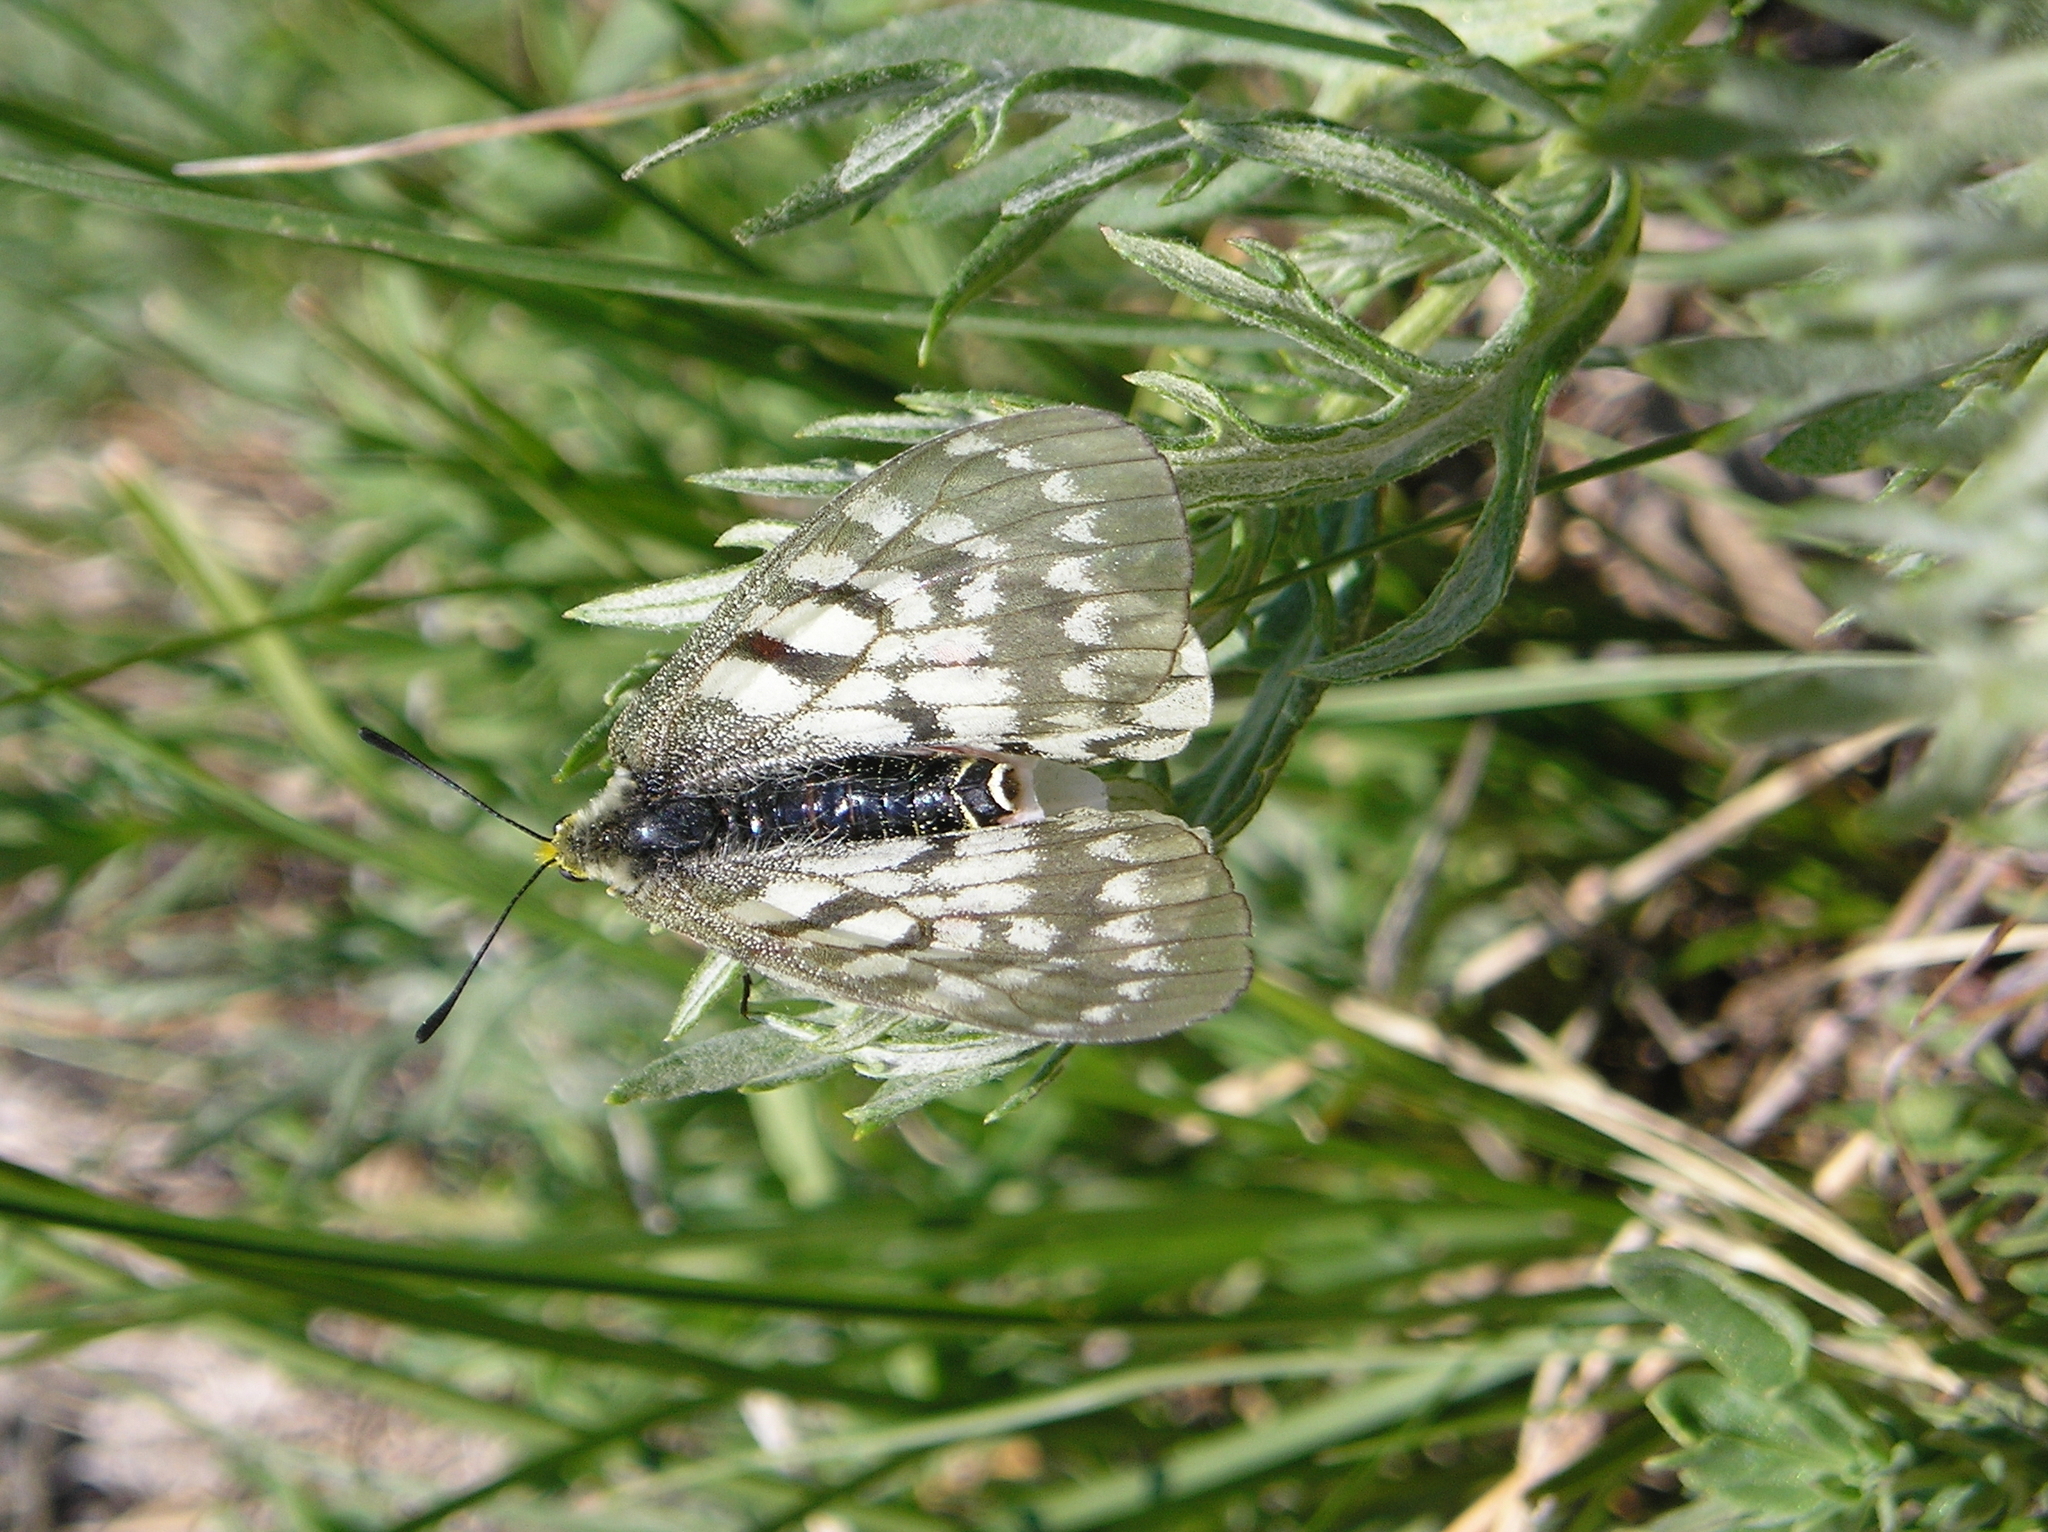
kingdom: Animalia
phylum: Arthropoda
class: Insecta
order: Lepidoptera
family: Papilionidae
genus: Parnassius
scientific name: Parnassius clodius
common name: American apollo
